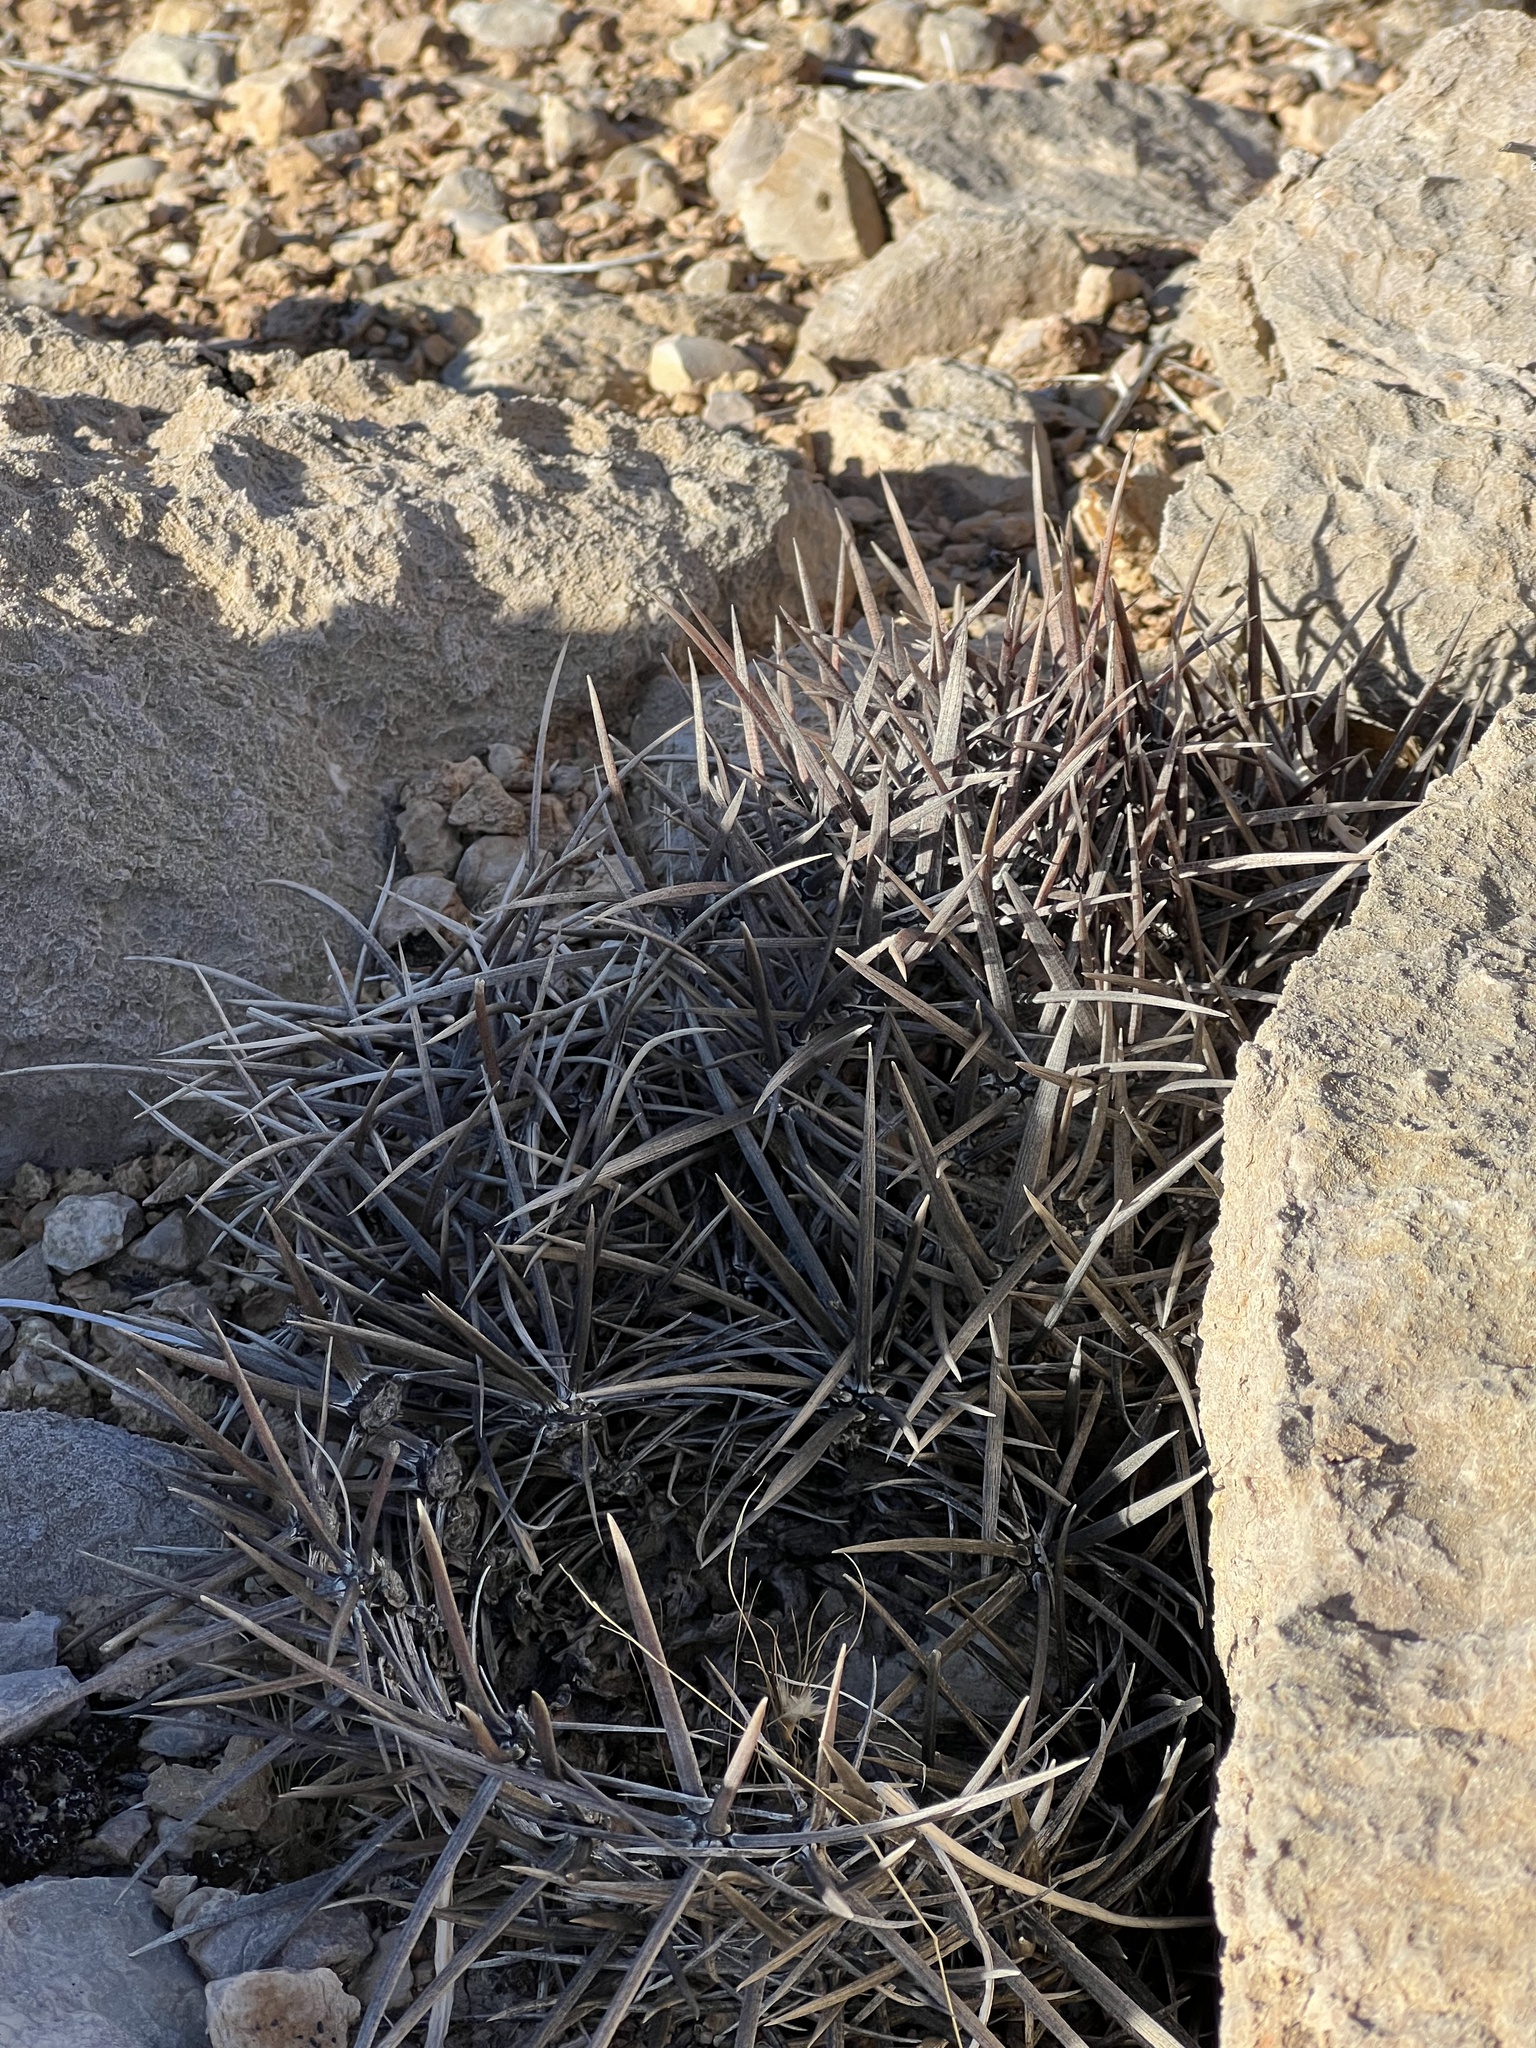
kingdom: Plantae
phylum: Tracheophyta
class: Magnoliopsida
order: Caryophyllales
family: Cactaceae
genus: Echinocactus
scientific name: Echinocactus polycephalus
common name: Cottontop cactus
